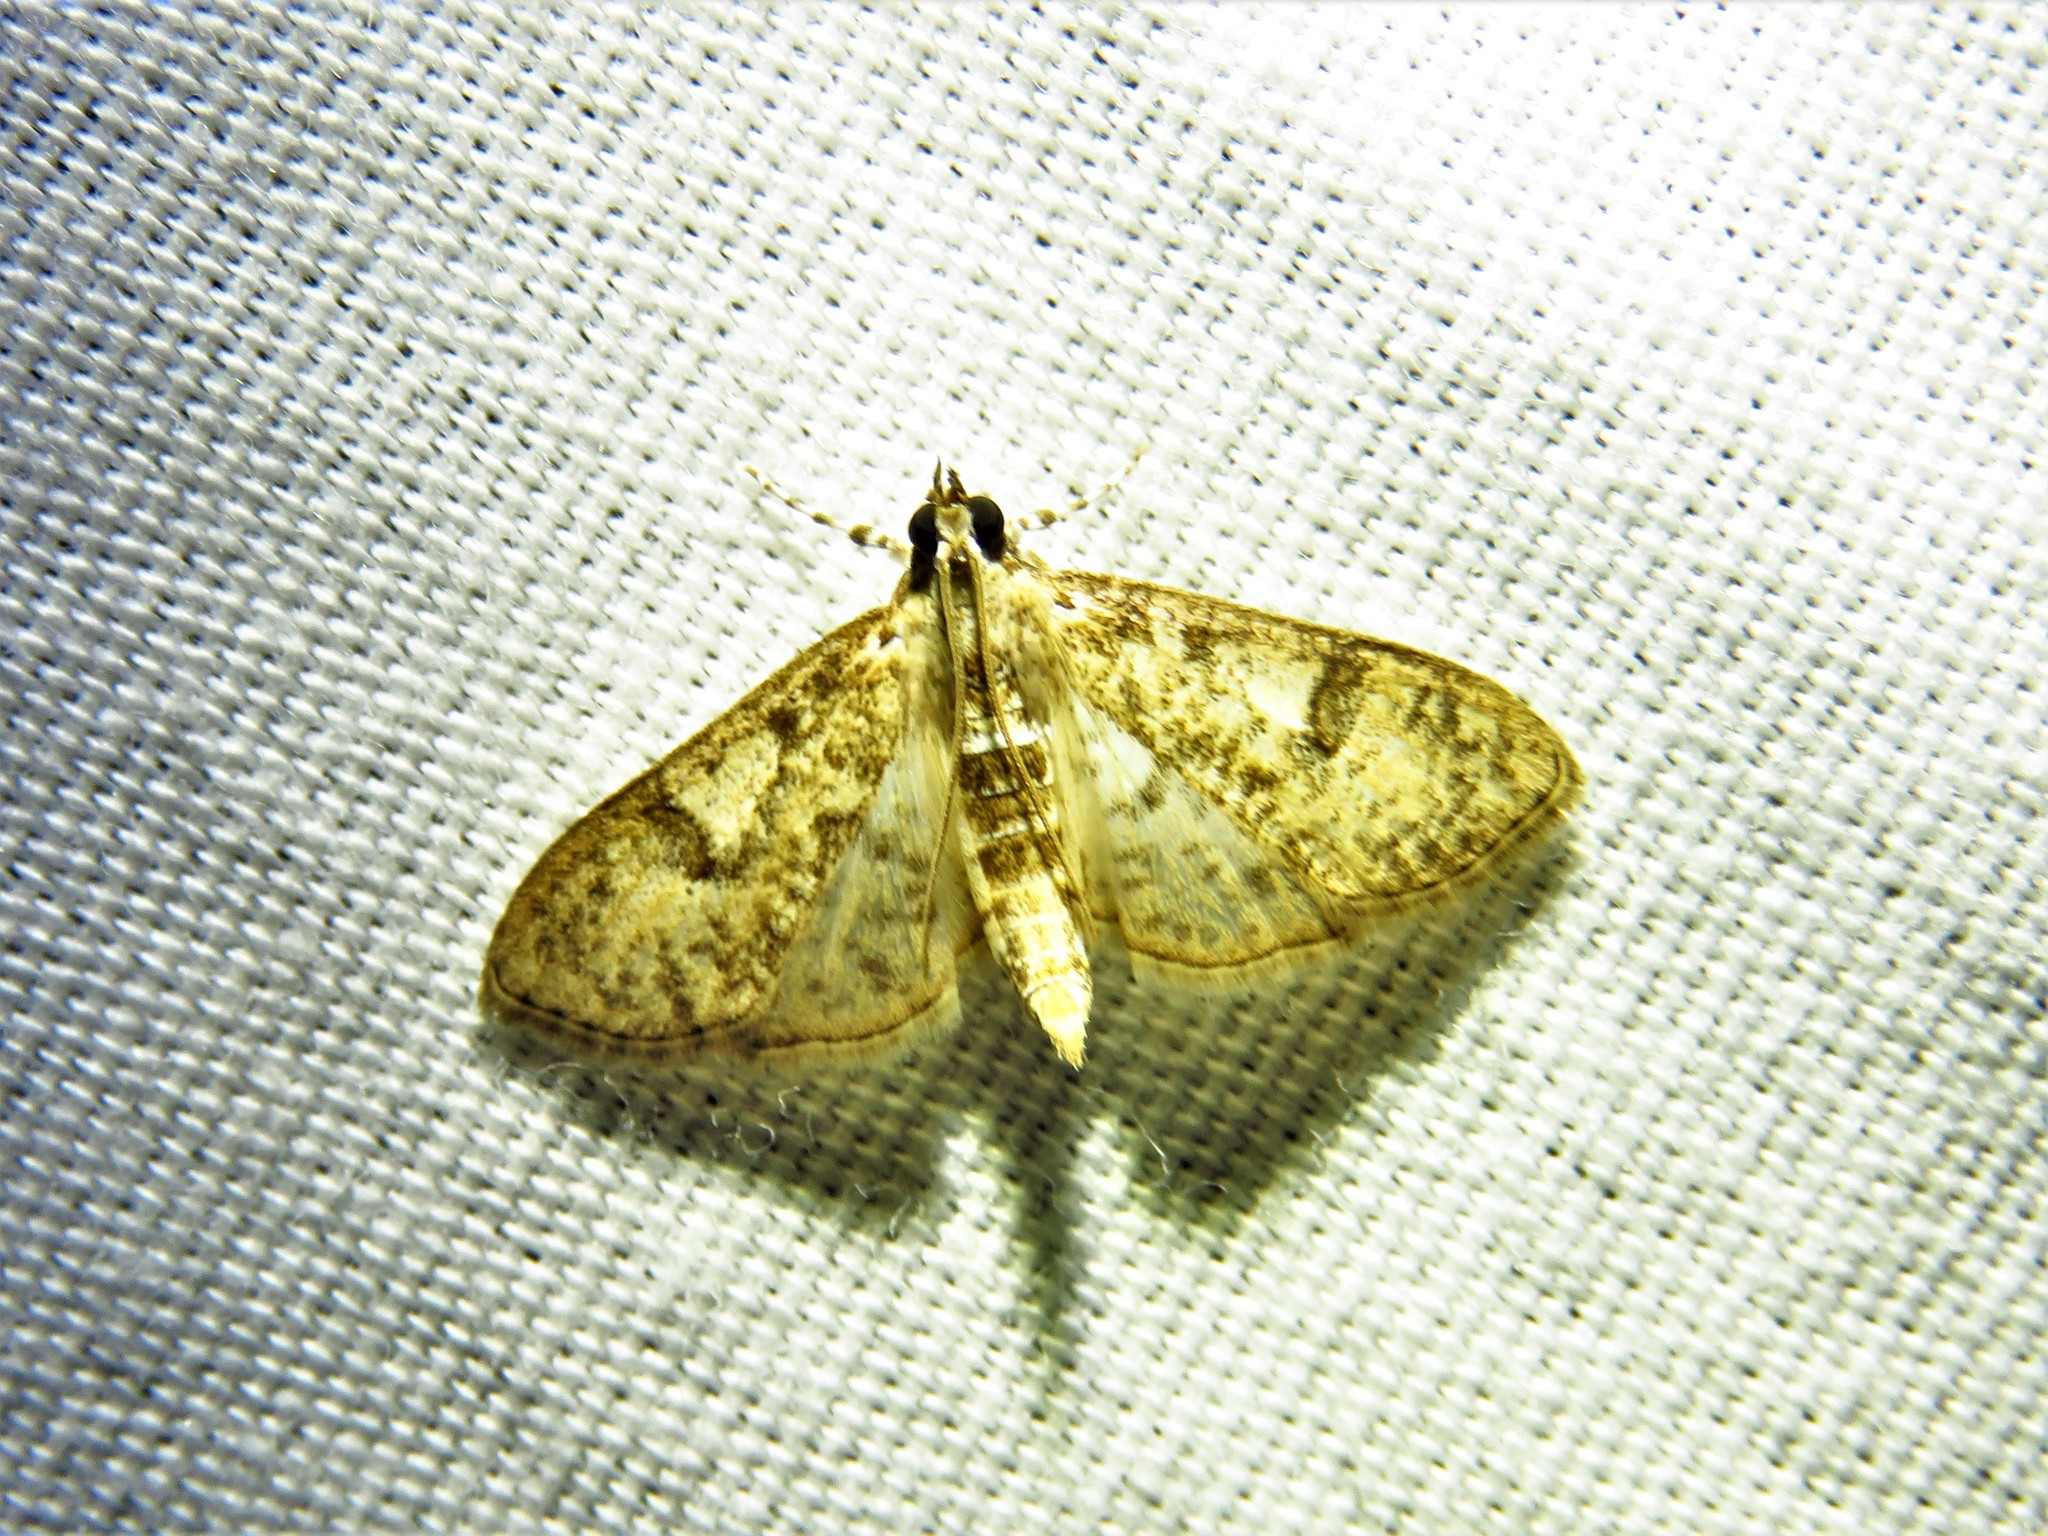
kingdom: Animalia
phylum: Arthropoda
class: Insecta
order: Lepidoptera
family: Crambidae
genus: Palpita
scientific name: Palpita freemanalis
